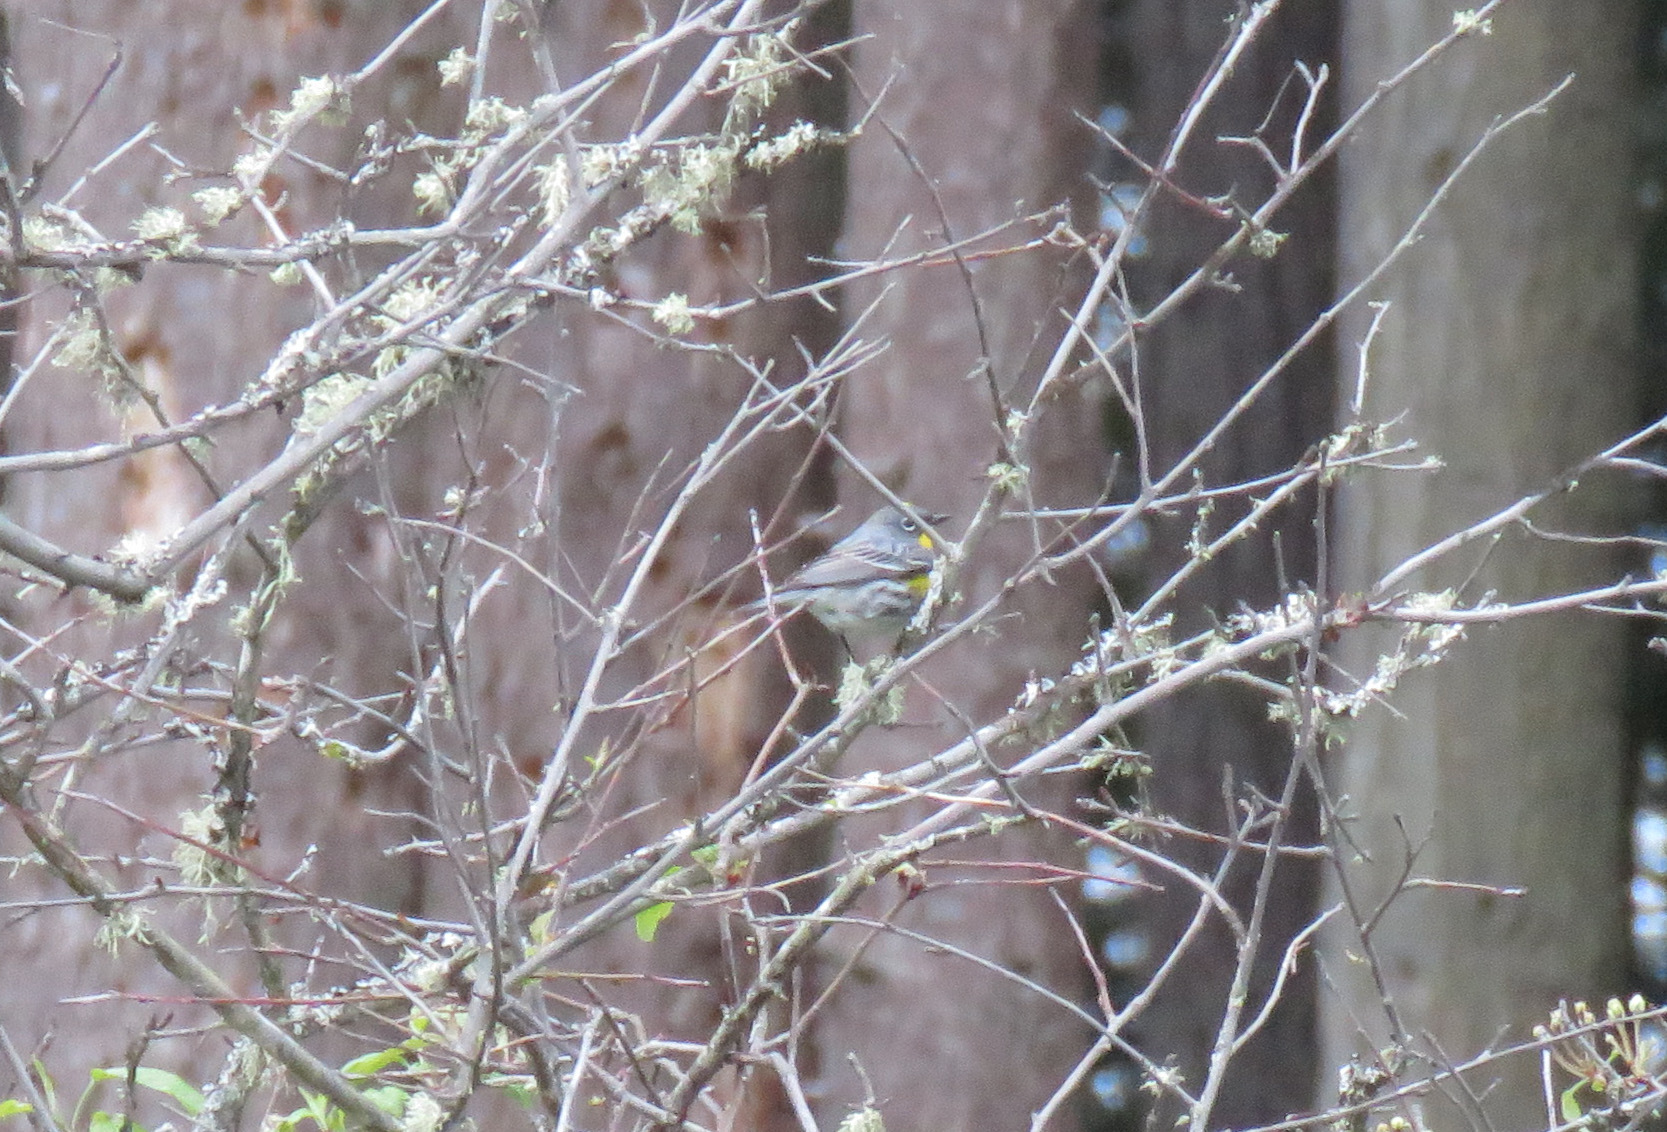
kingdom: Animalia
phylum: Chordata
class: Aves
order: Passeriformes
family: Parulidae
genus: Setophaga
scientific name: Setophaga coronata
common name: Myrtle warbler
